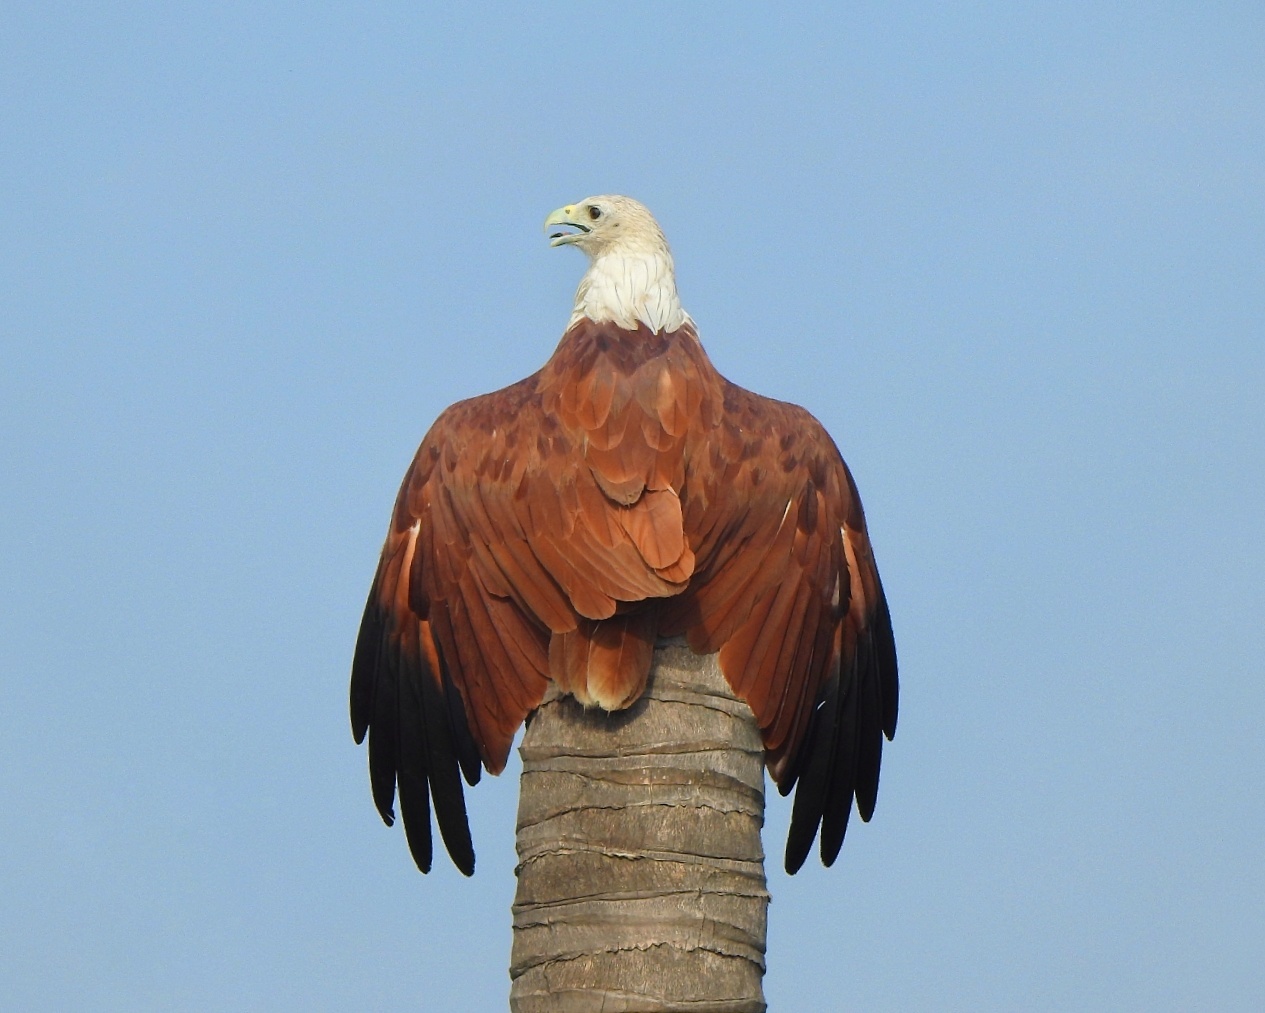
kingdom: Animalia
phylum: Chordata
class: Aves
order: Accipitriformes
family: Accipitridae
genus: Haliastur
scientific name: Haliastur indus
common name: Brahminy kite
